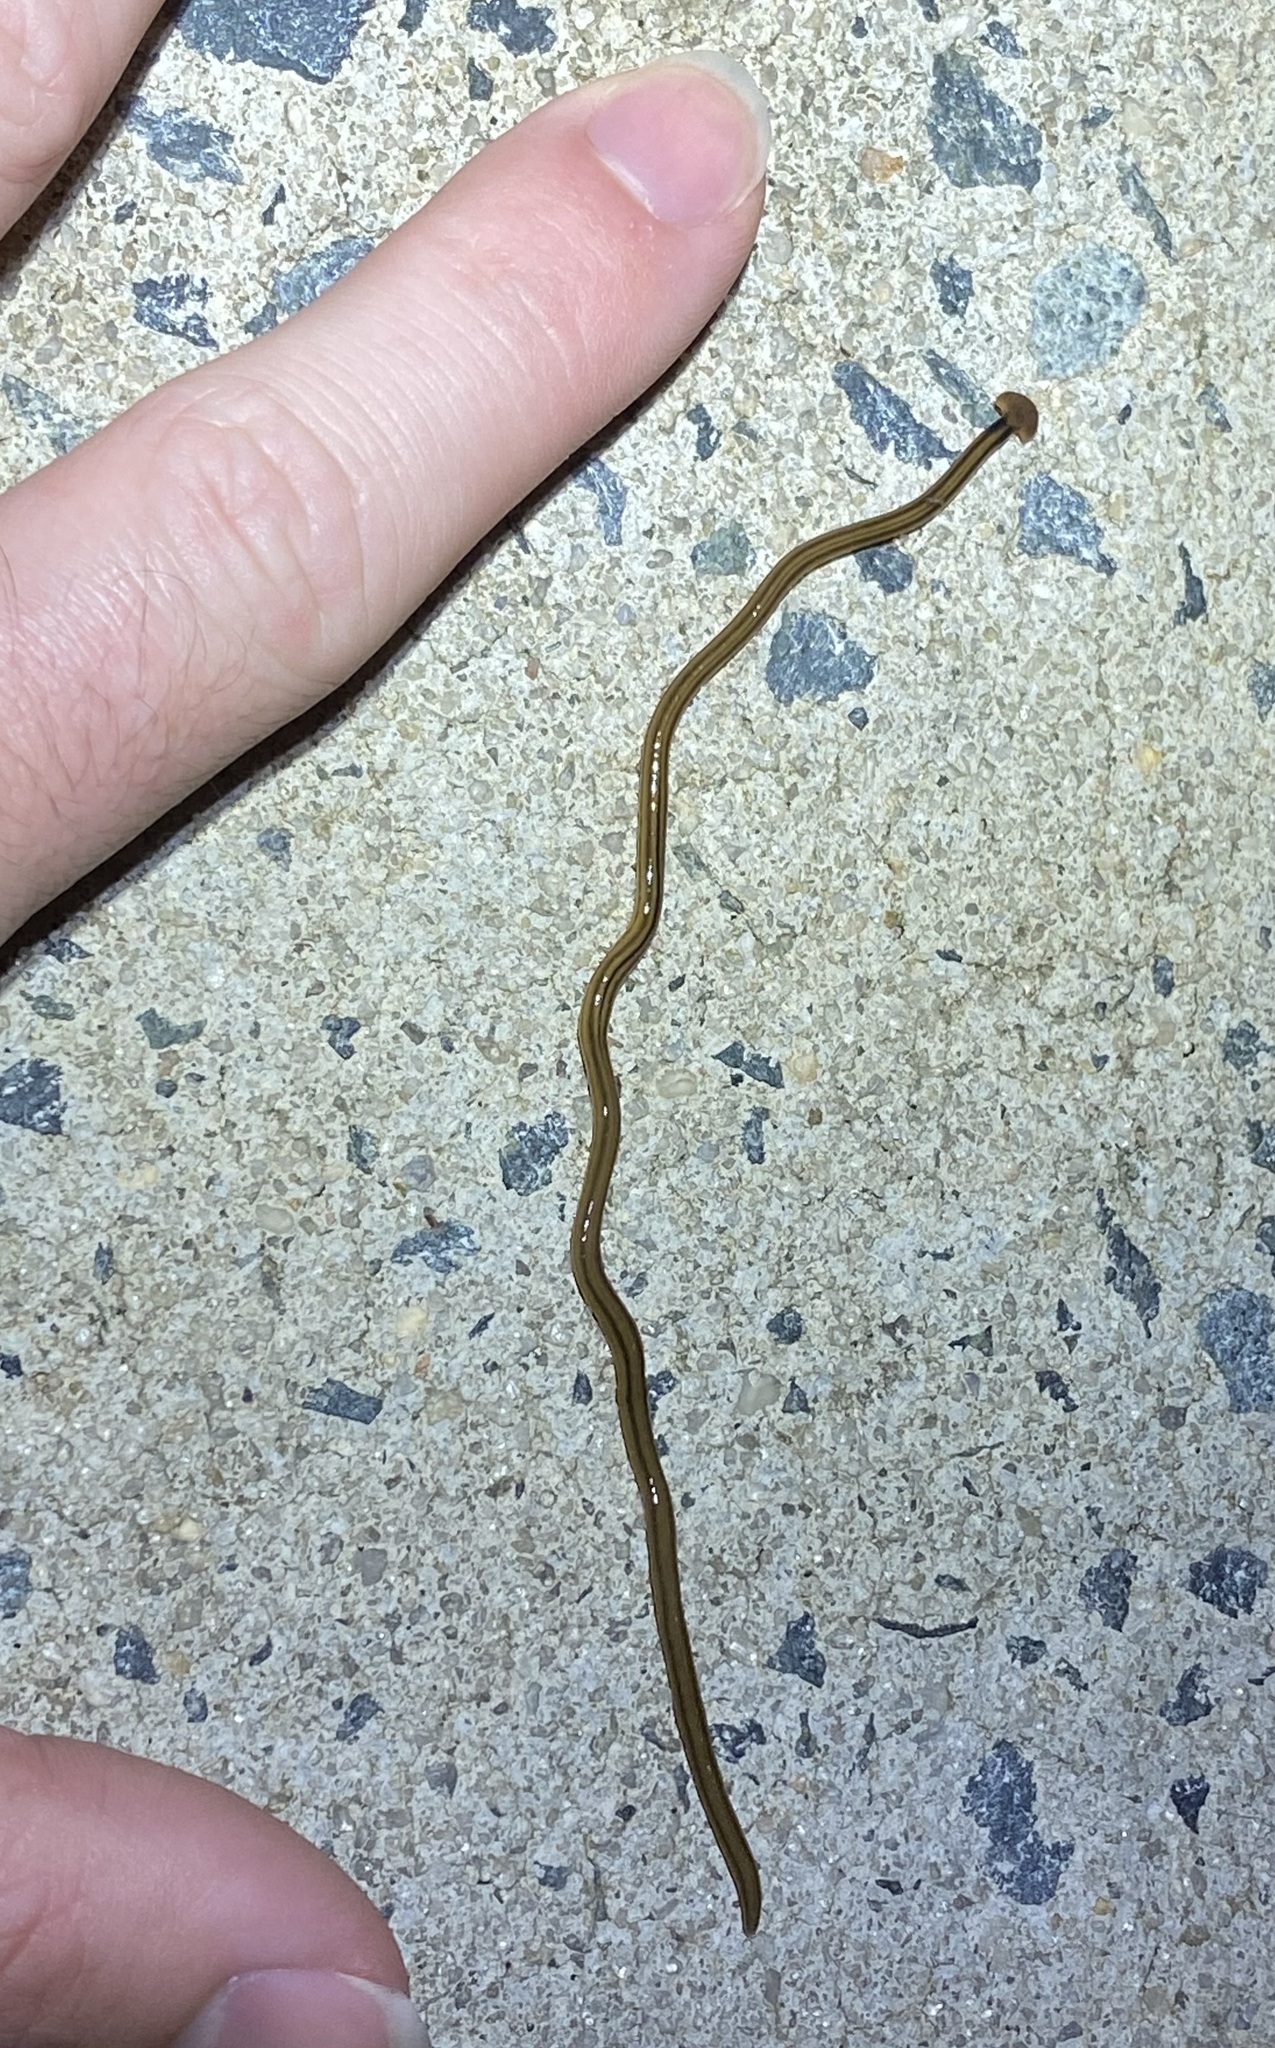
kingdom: Animalia
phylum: Platyhelminthes
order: Tricladida
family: Geoplanidae
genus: Bipalium
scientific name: Bipalium kewense
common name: Hammerhead flatworm
